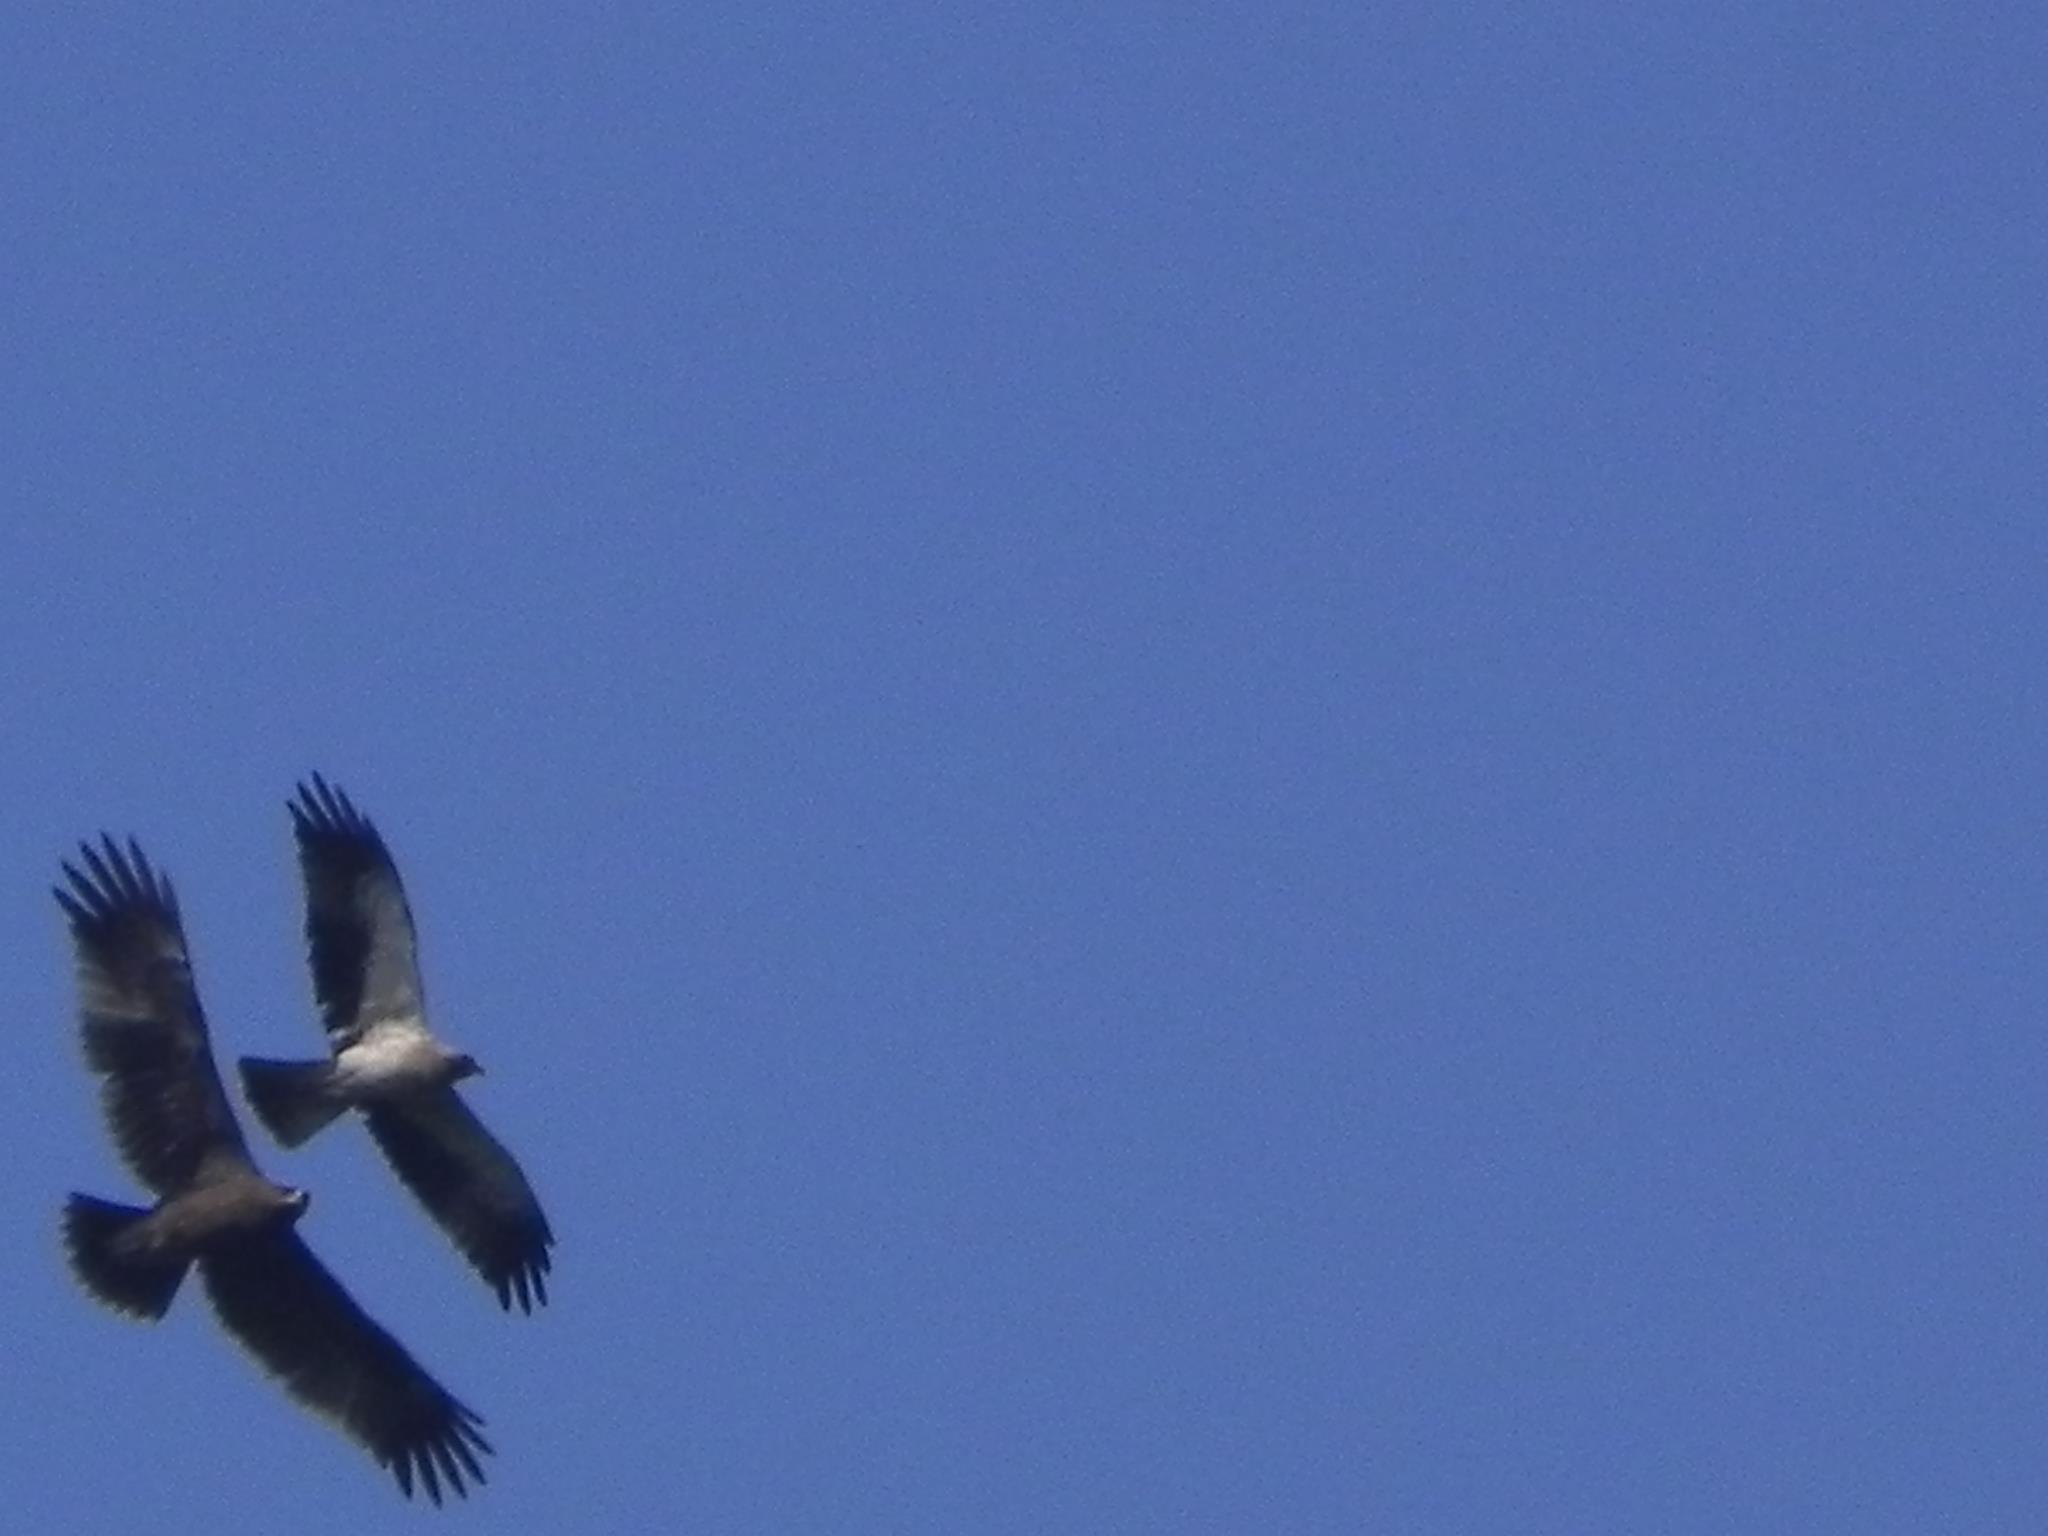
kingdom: Animalia
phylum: Chordata
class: Aves
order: Accipitriformes
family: Accipitridae
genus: Hieraaetus
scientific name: Hieraaetus pennatus
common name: Booted eagle
